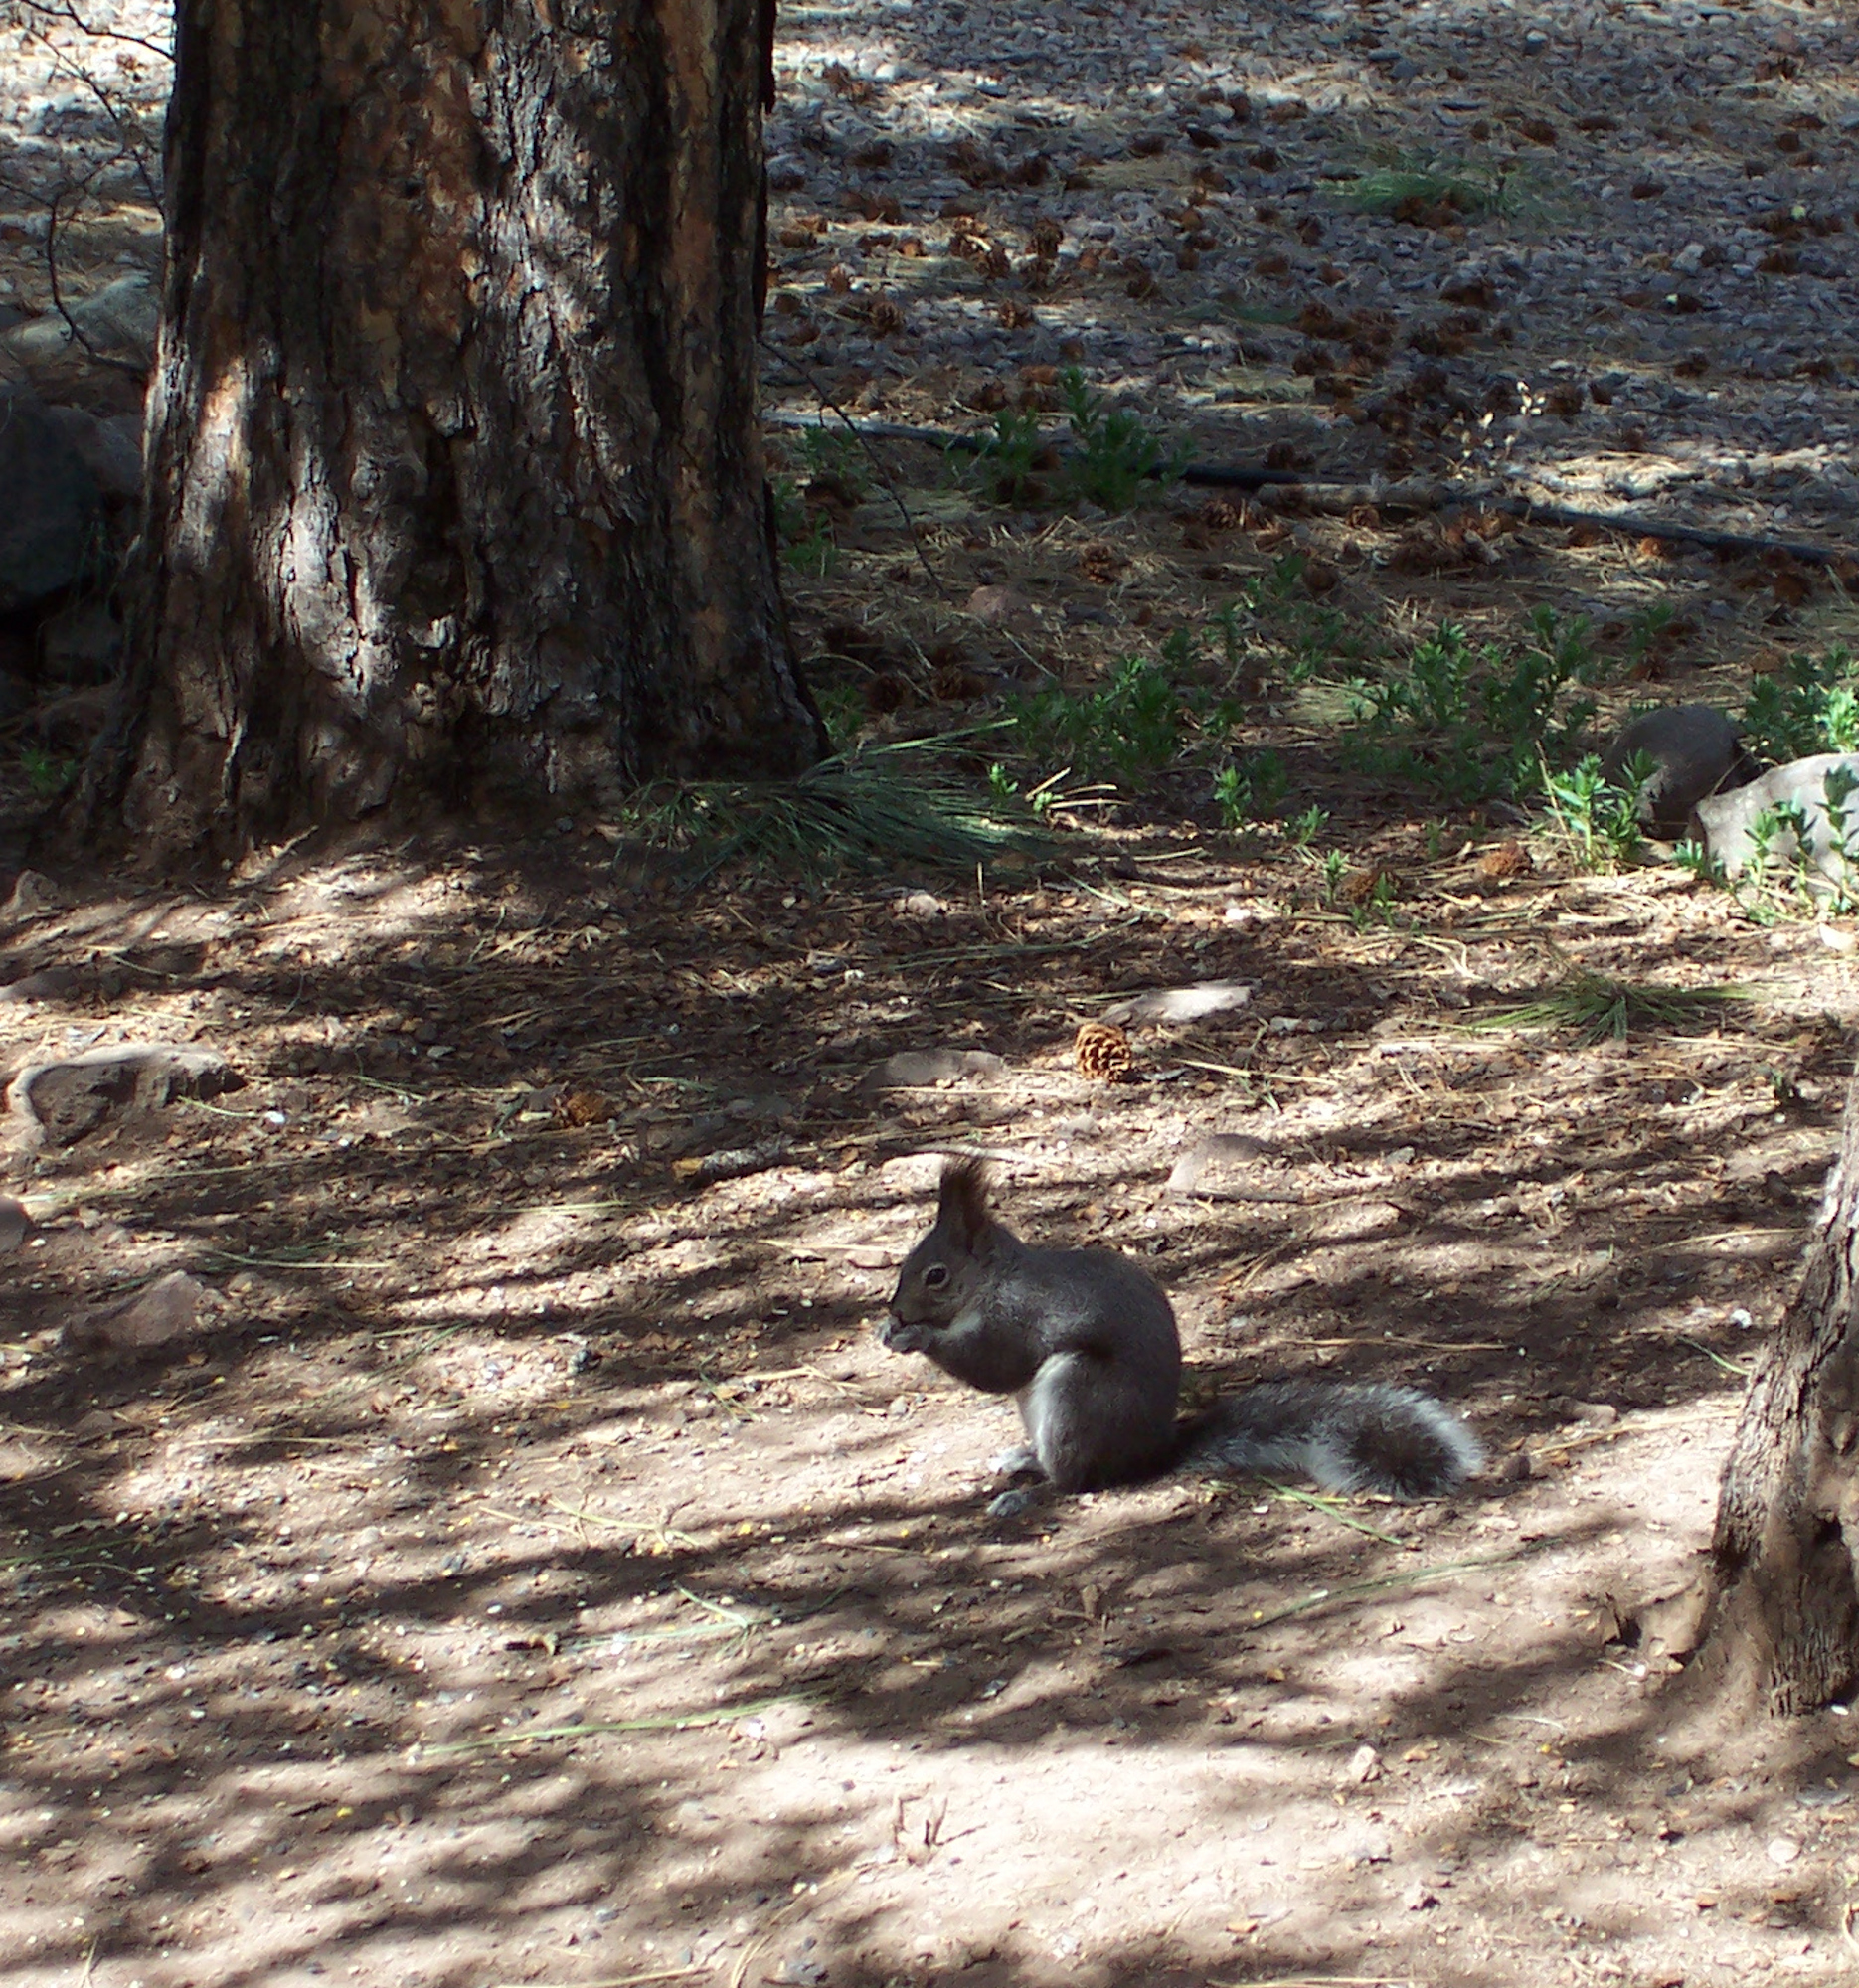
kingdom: Animalia
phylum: Chordata
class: Mammalia
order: Rodentia
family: Sciuridae
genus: Sciurus
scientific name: Sciurus aberti
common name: Abert's squirrel
